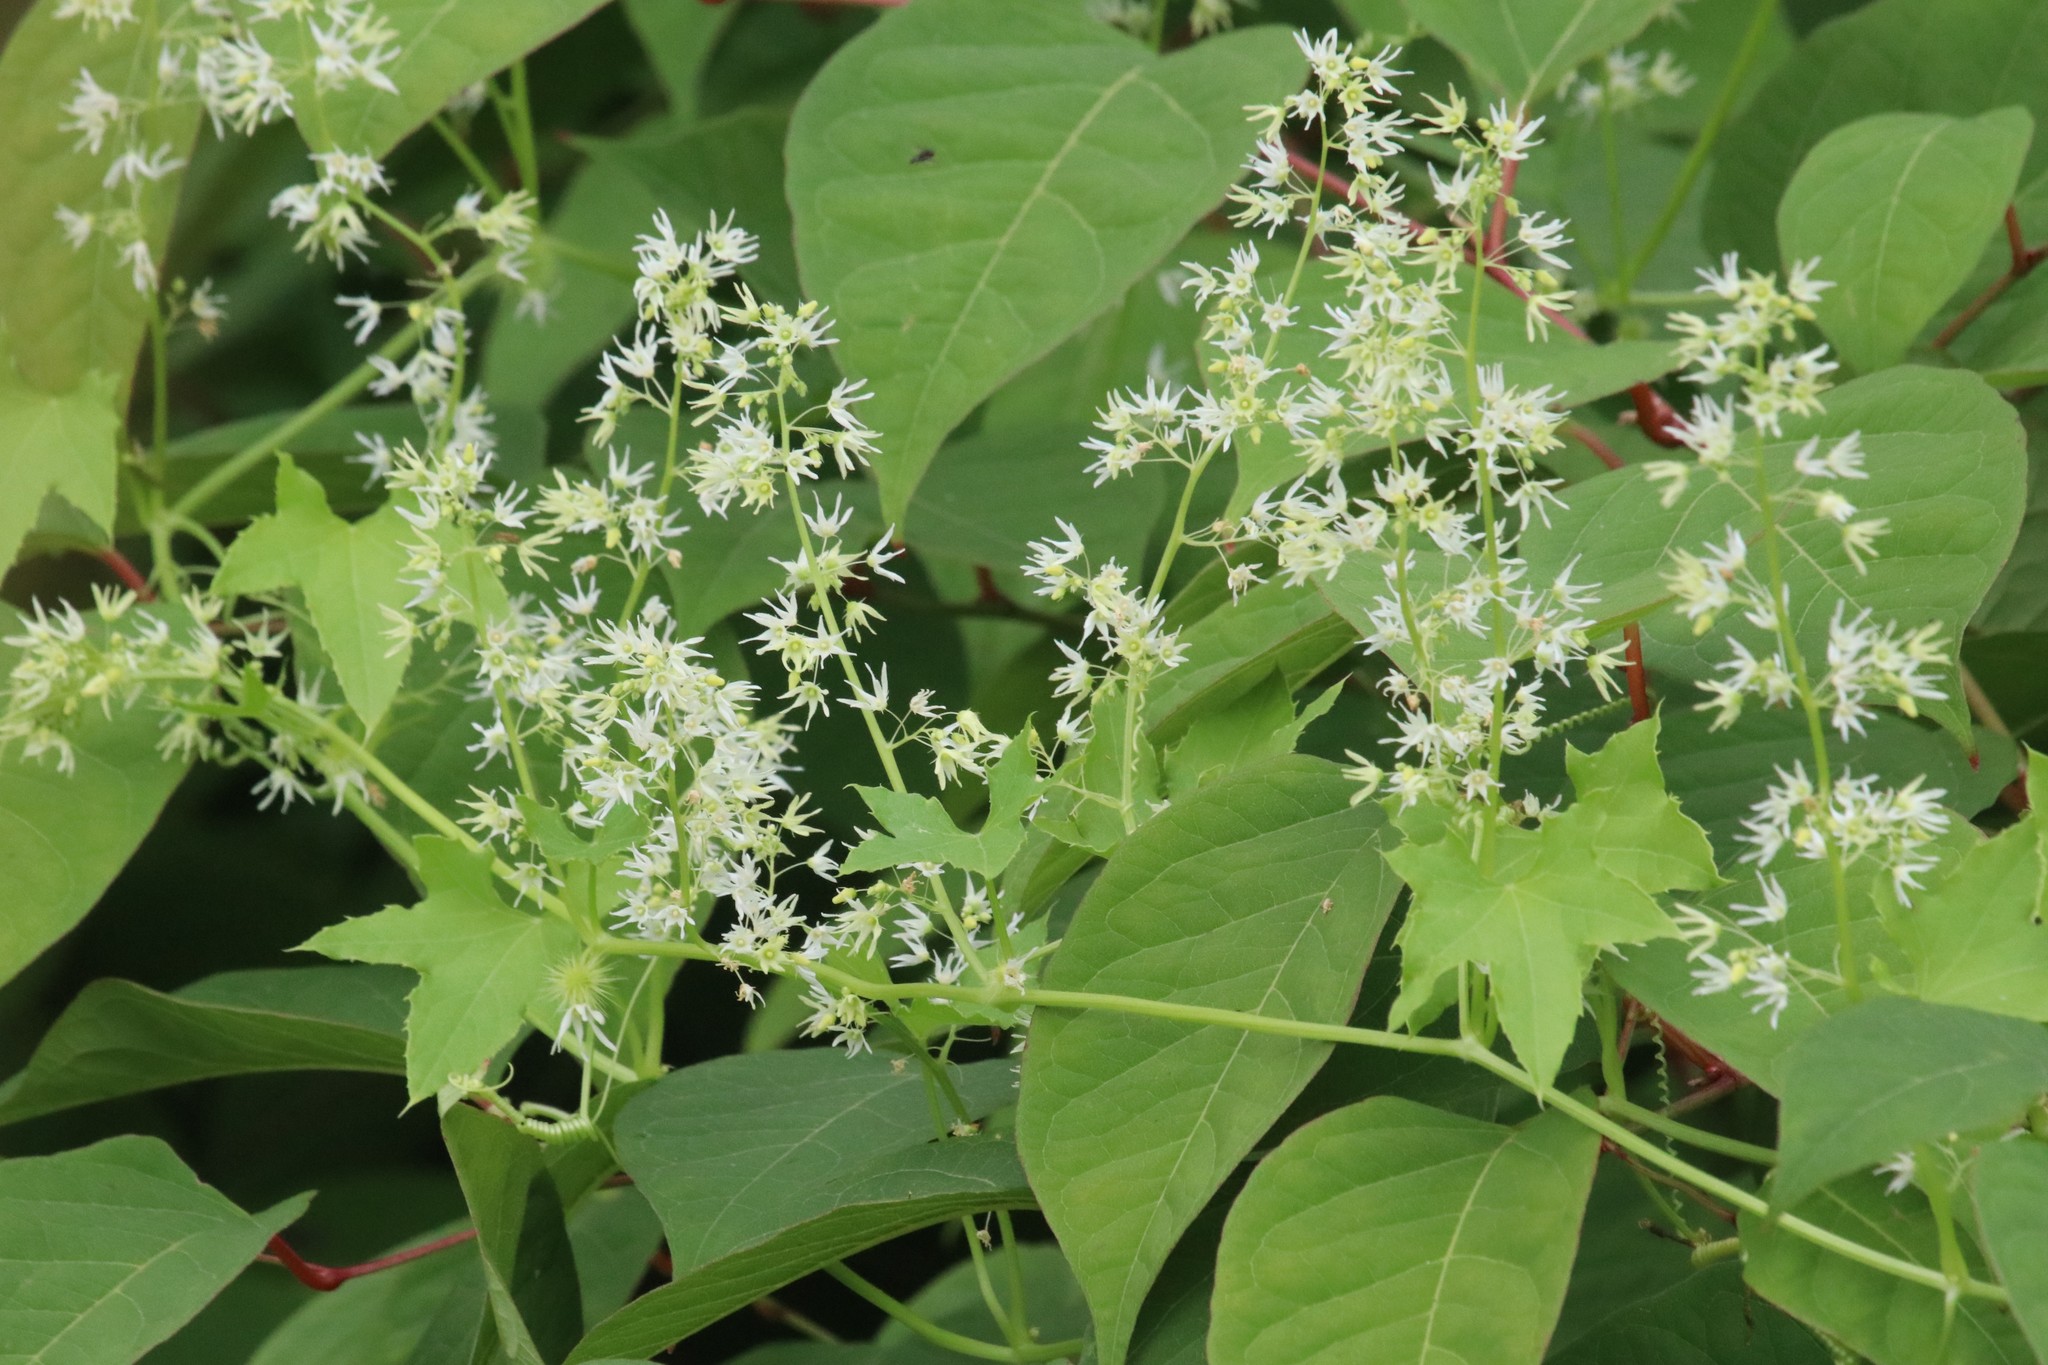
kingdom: Plantae
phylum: Tracheophyta
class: Magnoliopsida
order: Cucurbitales
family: Cucurbitaceae
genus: Echinocystis
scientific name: Echinocystis lobata
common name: Wild cucumber
